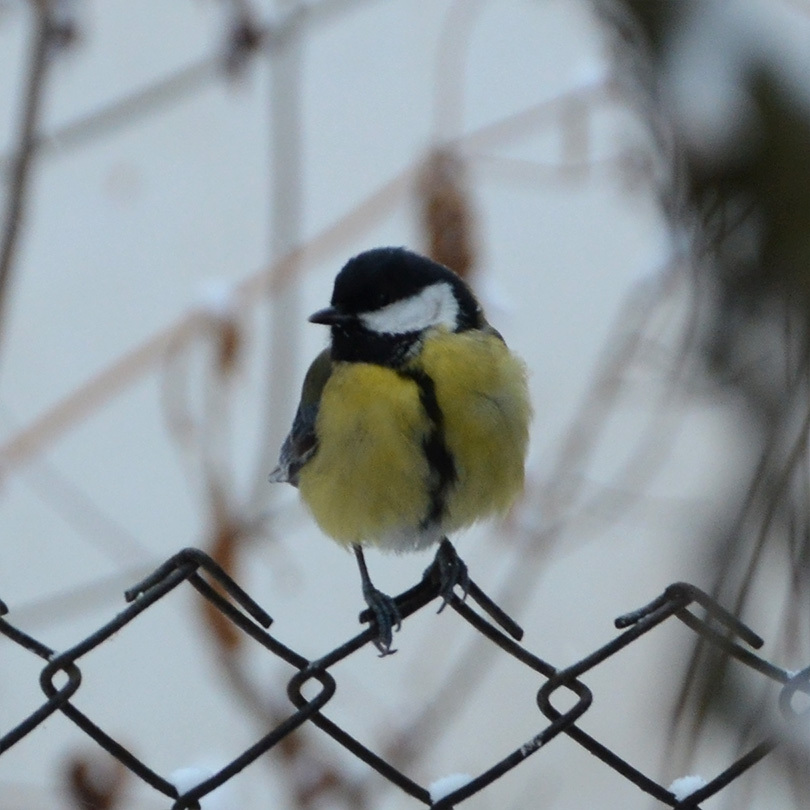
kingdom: Animalia
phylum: Chordata
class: Aves
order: Passeriformes
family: Paridae
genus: Parus
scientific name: Parus major
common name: Great tit
